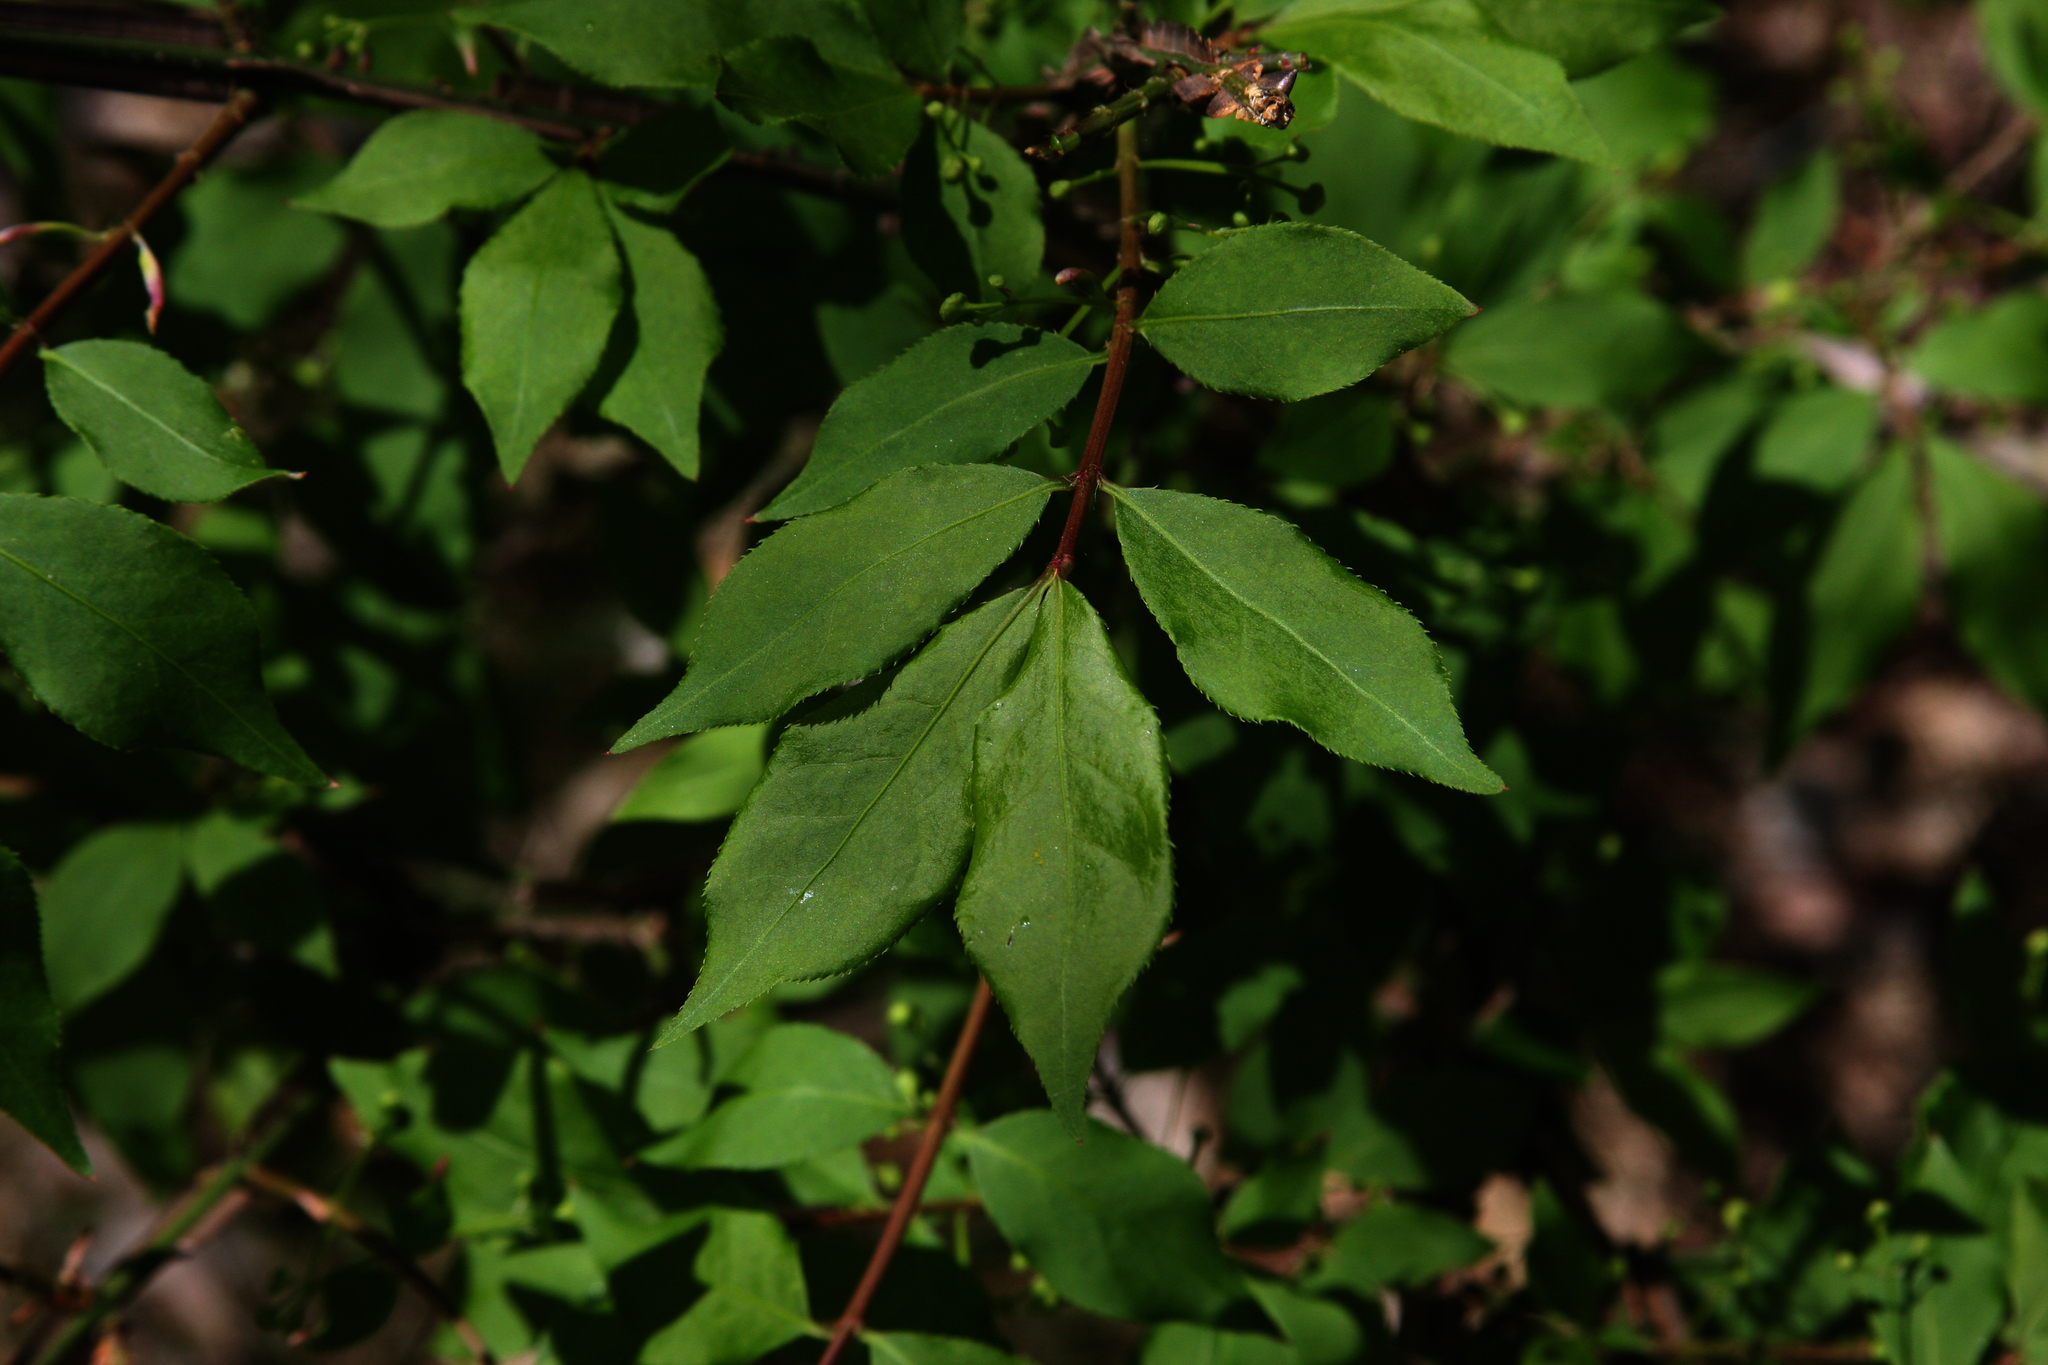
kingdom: Plantae
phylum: Tracheophyta
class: Magnoliopsida
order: Celastrales
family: Celastraceae
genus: Euonymus
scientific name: Euonymus alatus
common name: Winged euonymus
